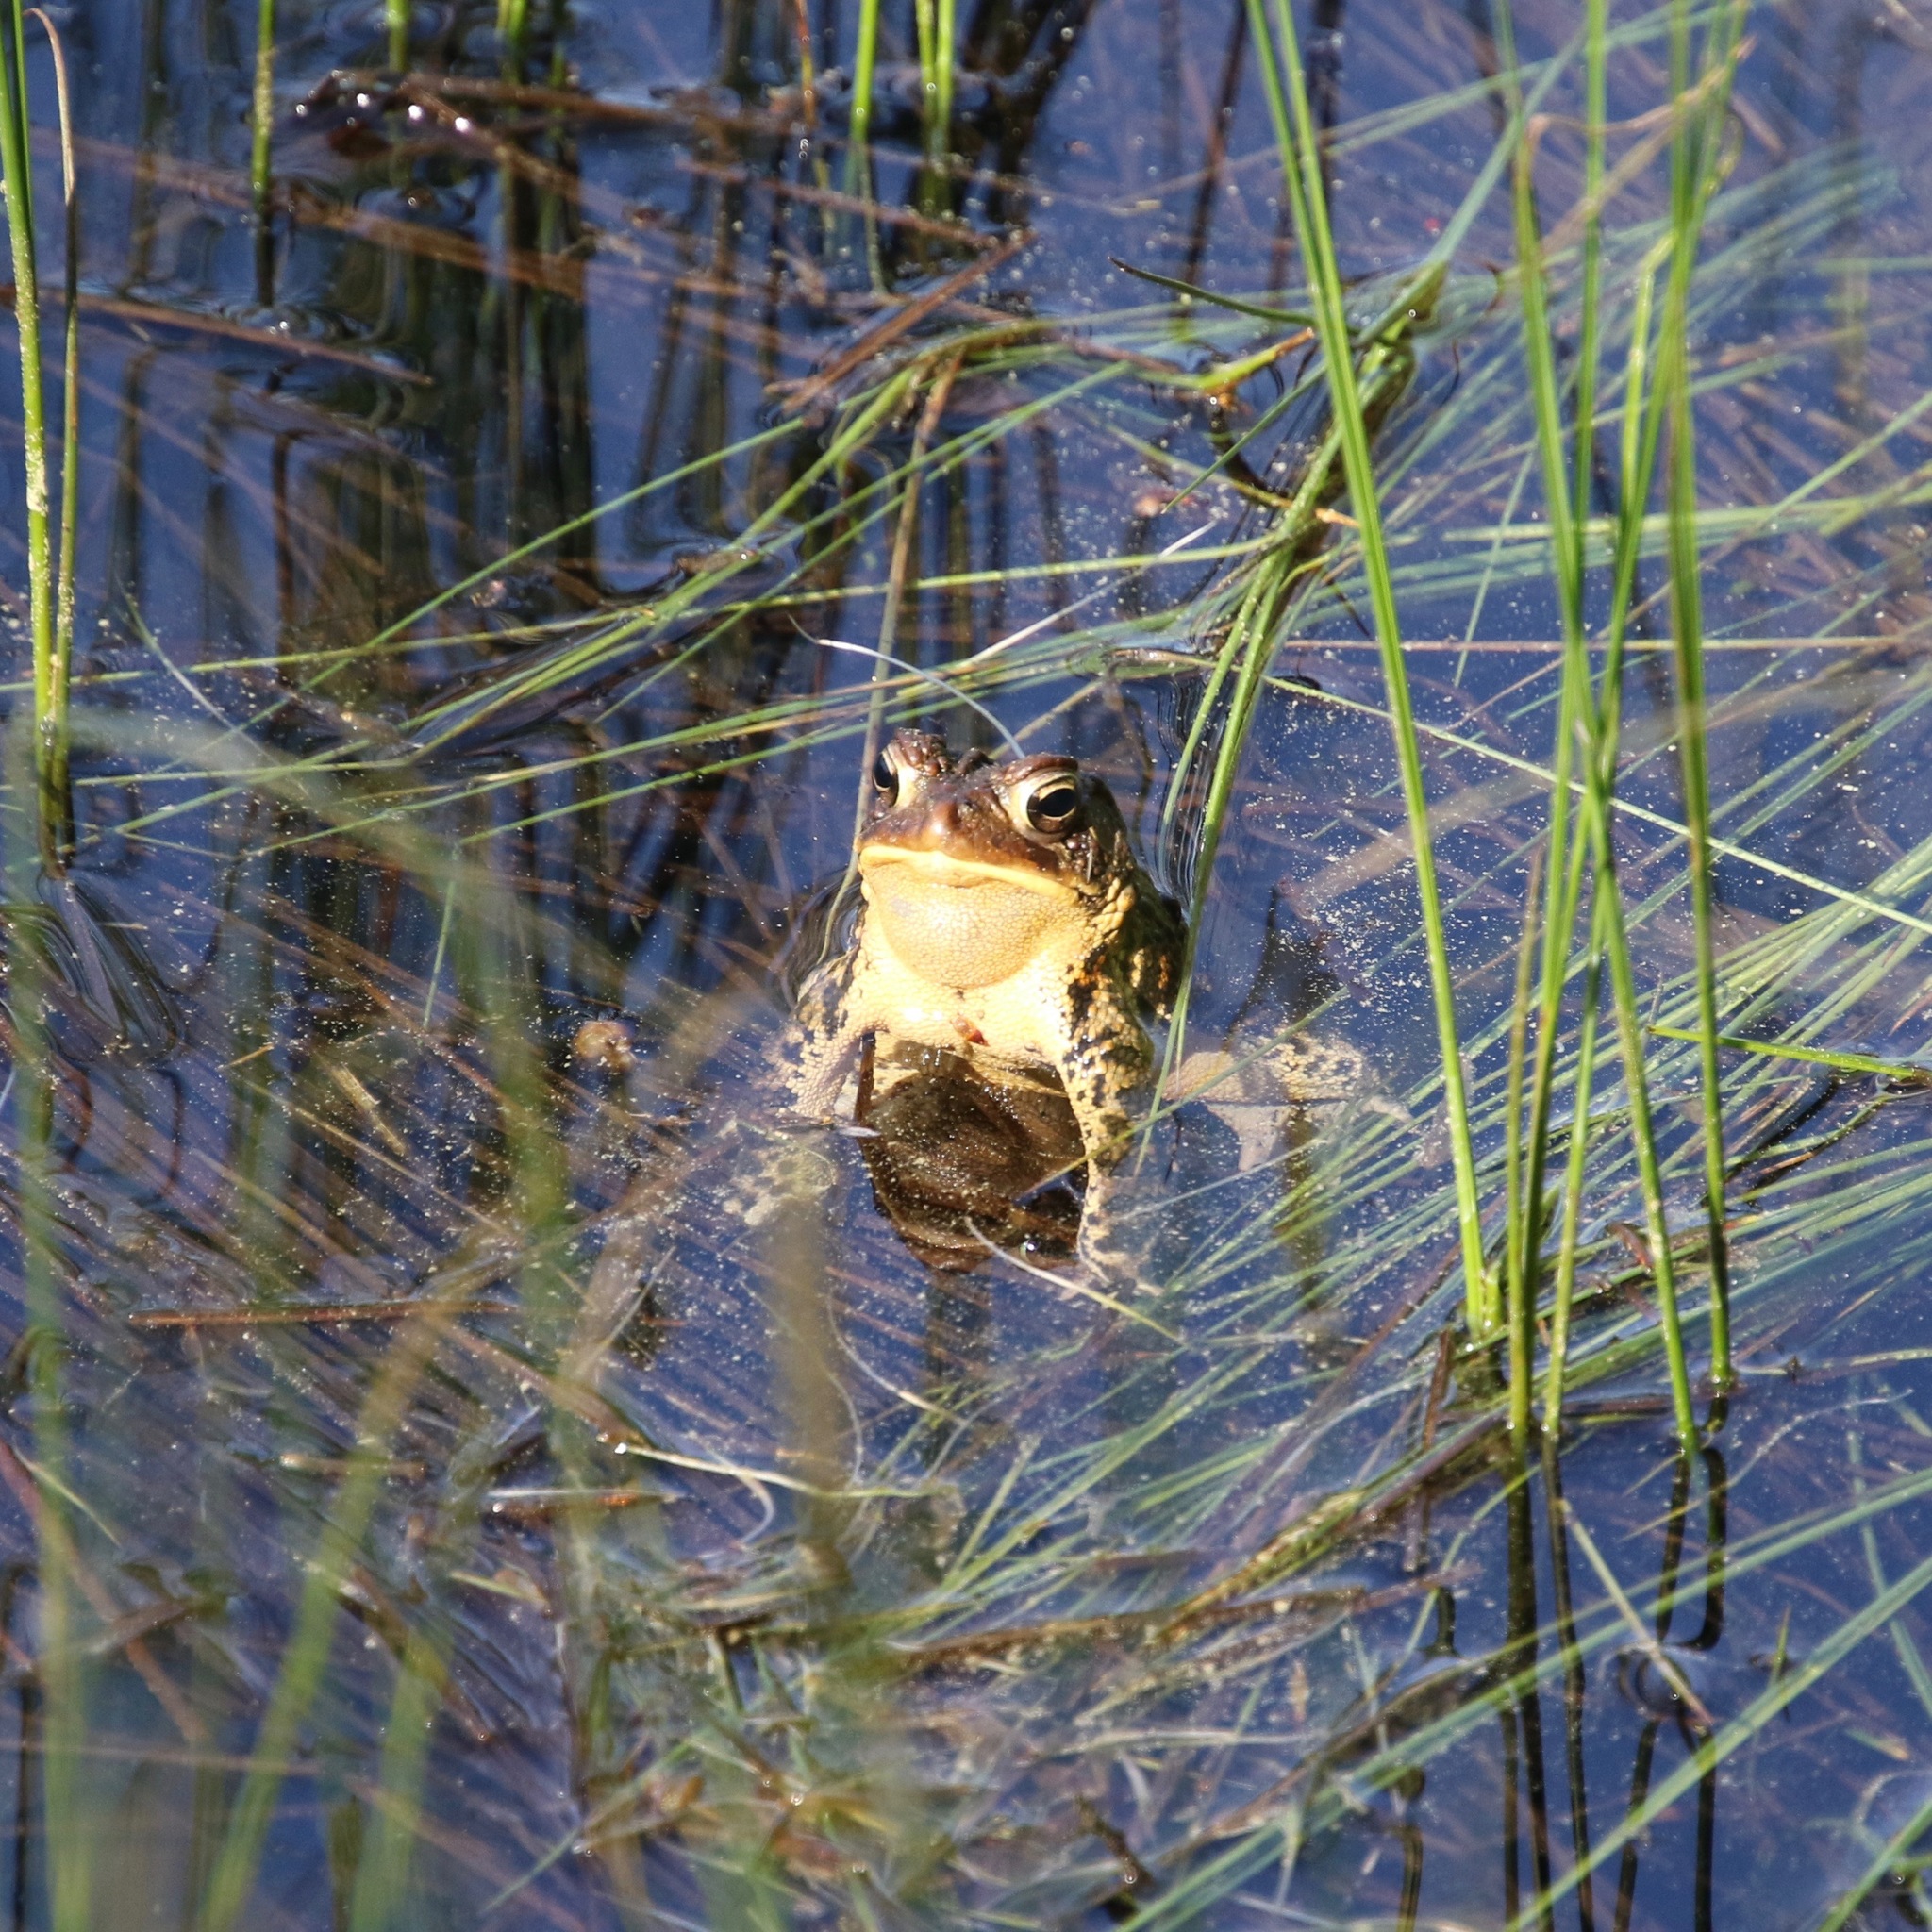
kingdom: Animalia
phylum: Chordata
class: Amphibia
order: Anura
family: Bufonidae
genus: Anaxyrus
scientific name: Anaxyrus americanus
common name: American toad
